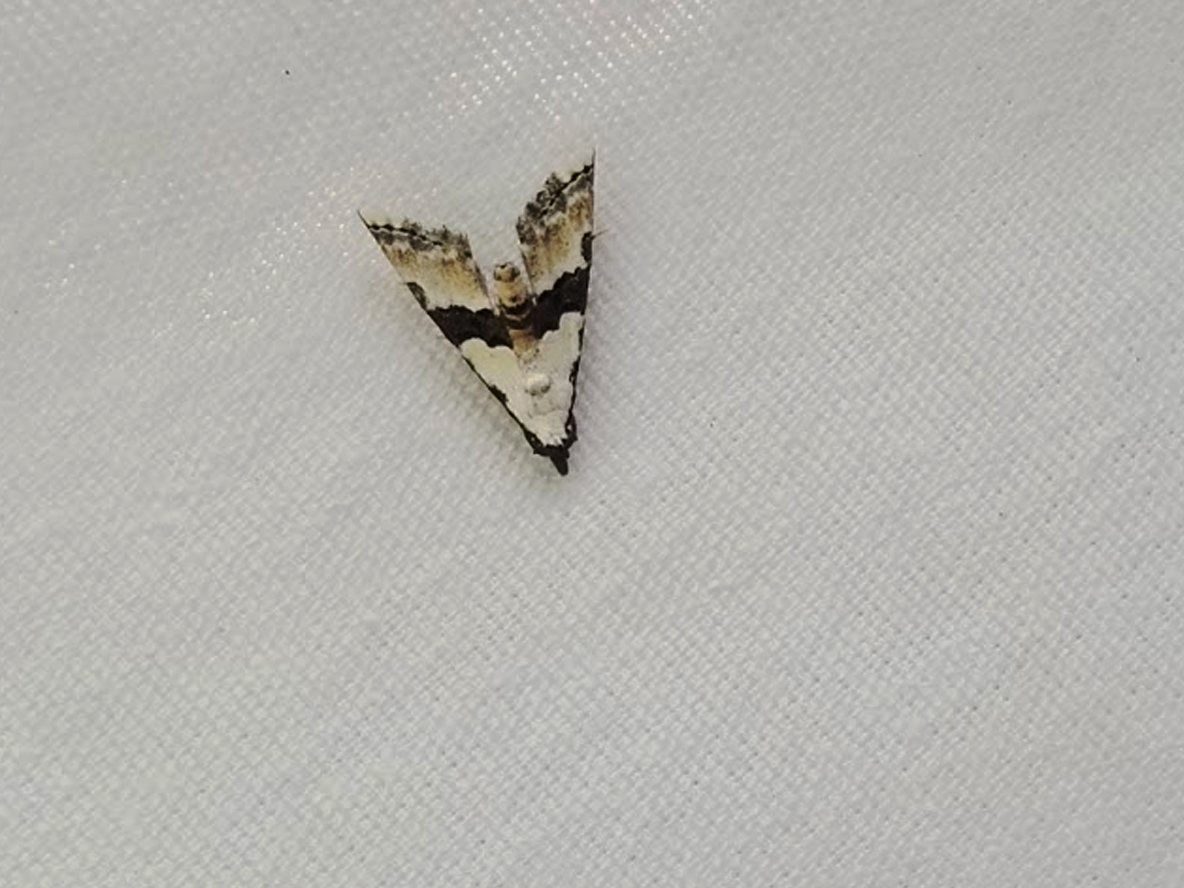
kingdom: Animalia
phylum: Arthropoda
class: Insecta
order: Lepidoptera
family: Noctuidae
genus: Nigetia
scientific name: Nigetia formosalis
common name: Thin-winged owlet
